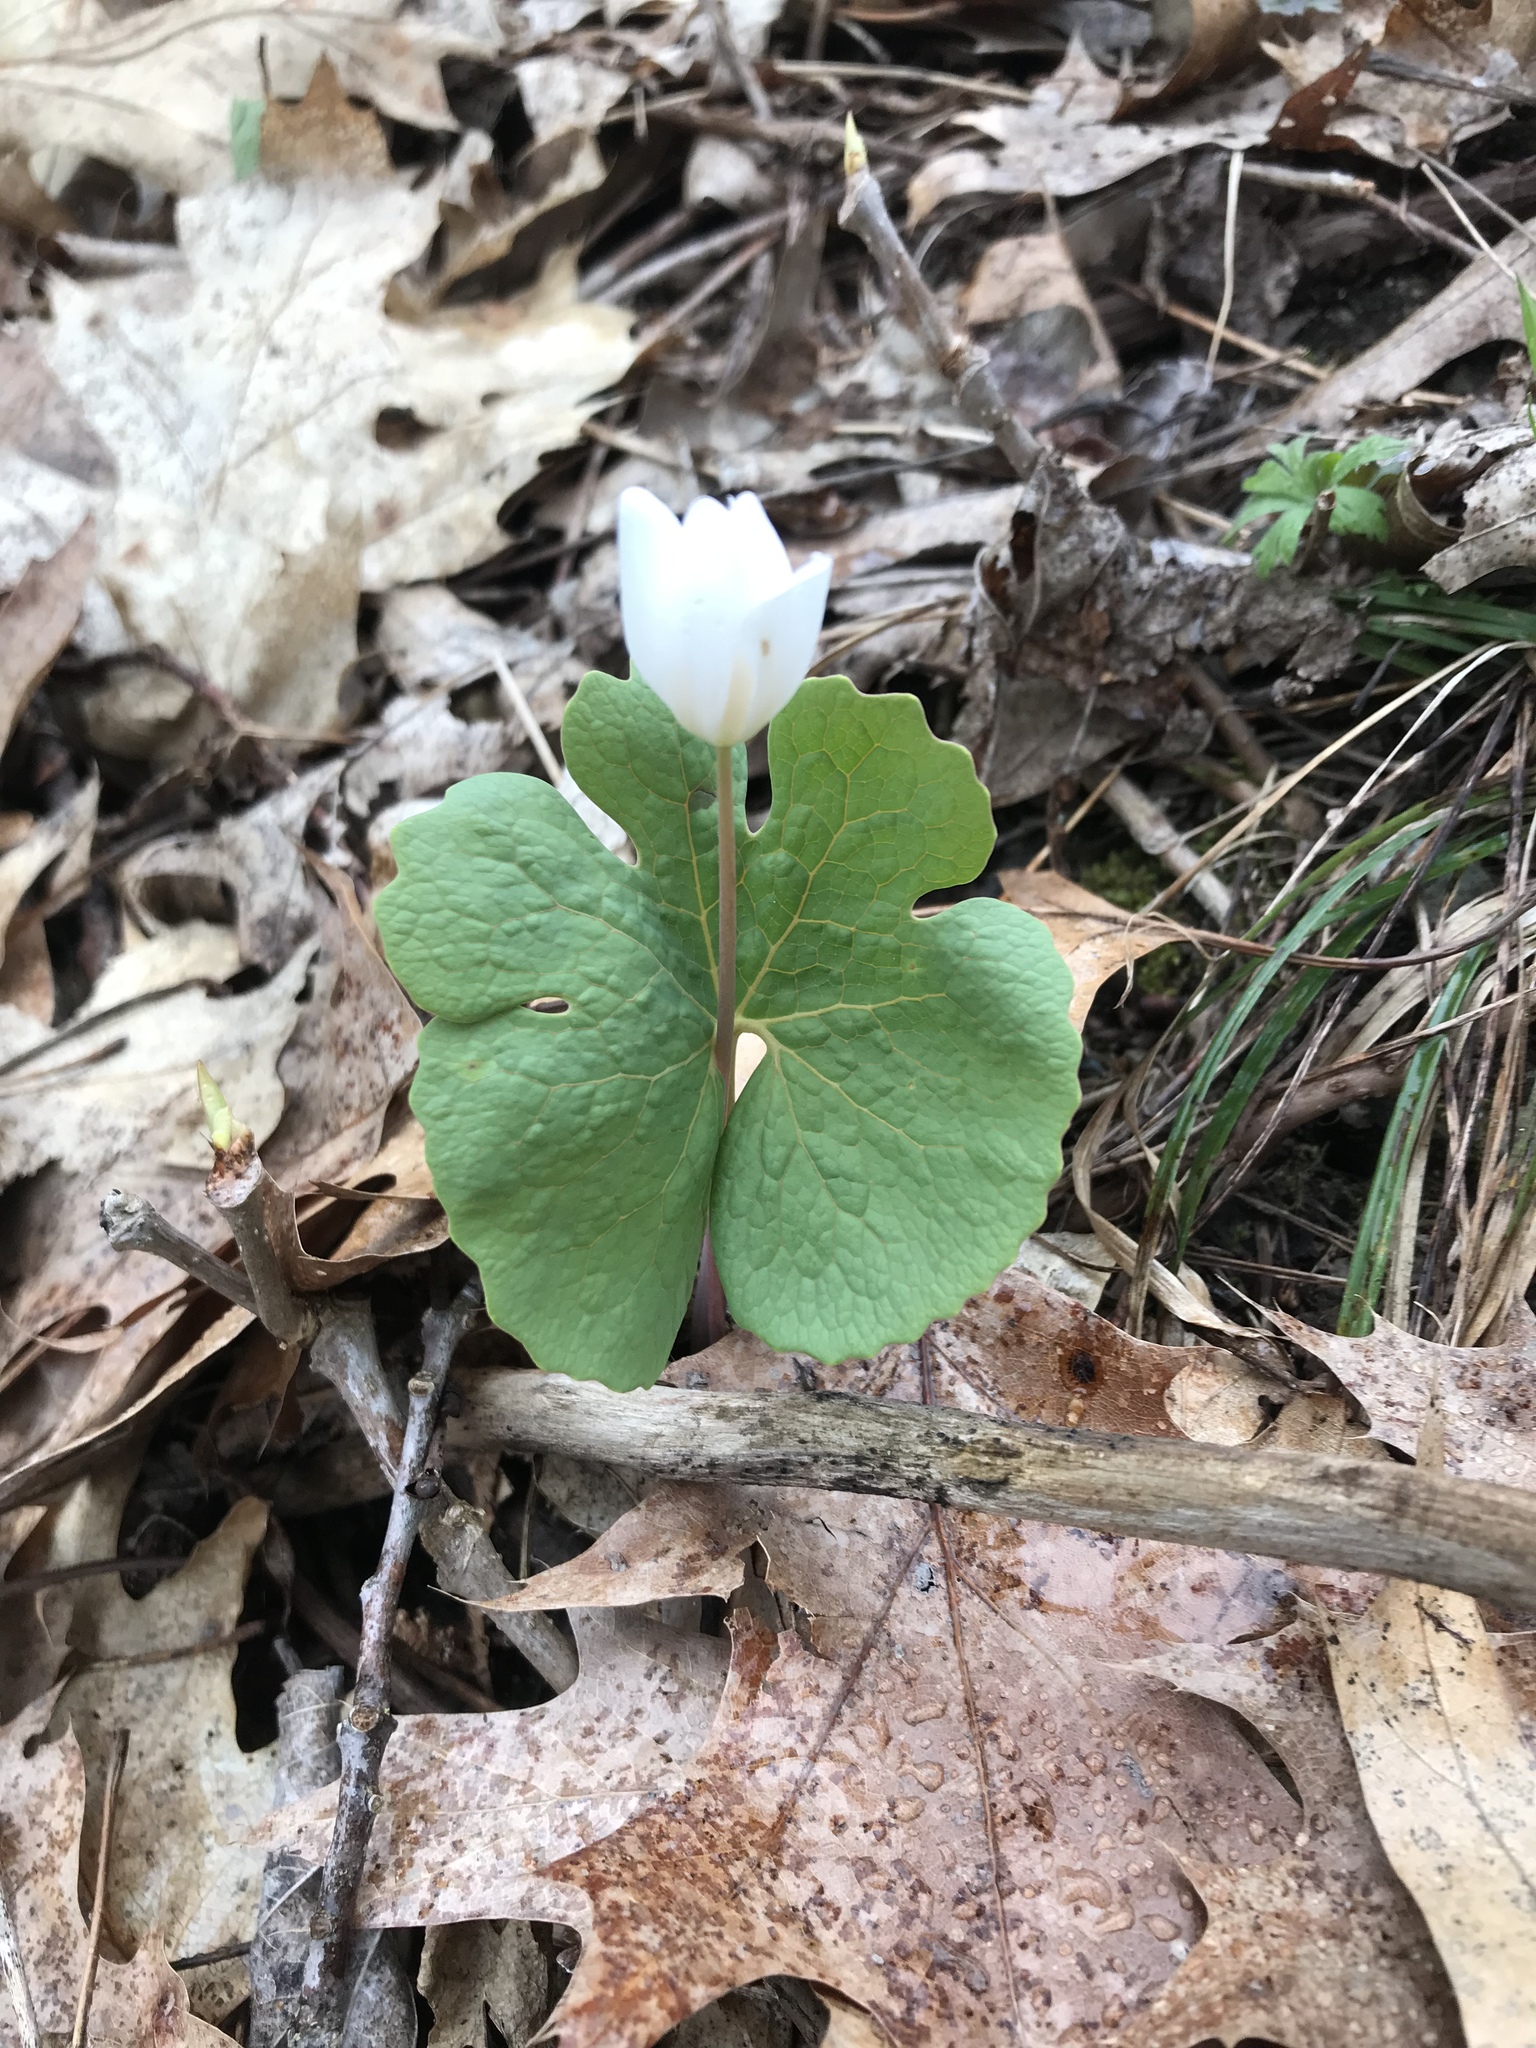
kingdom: Plantae
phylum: Tracheophyta
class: Magnoliopsida
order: Ranunculales
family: Papaveraceae
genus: Sanguinaria
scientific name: Sanguinaria canadensis
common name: Bloodroot
